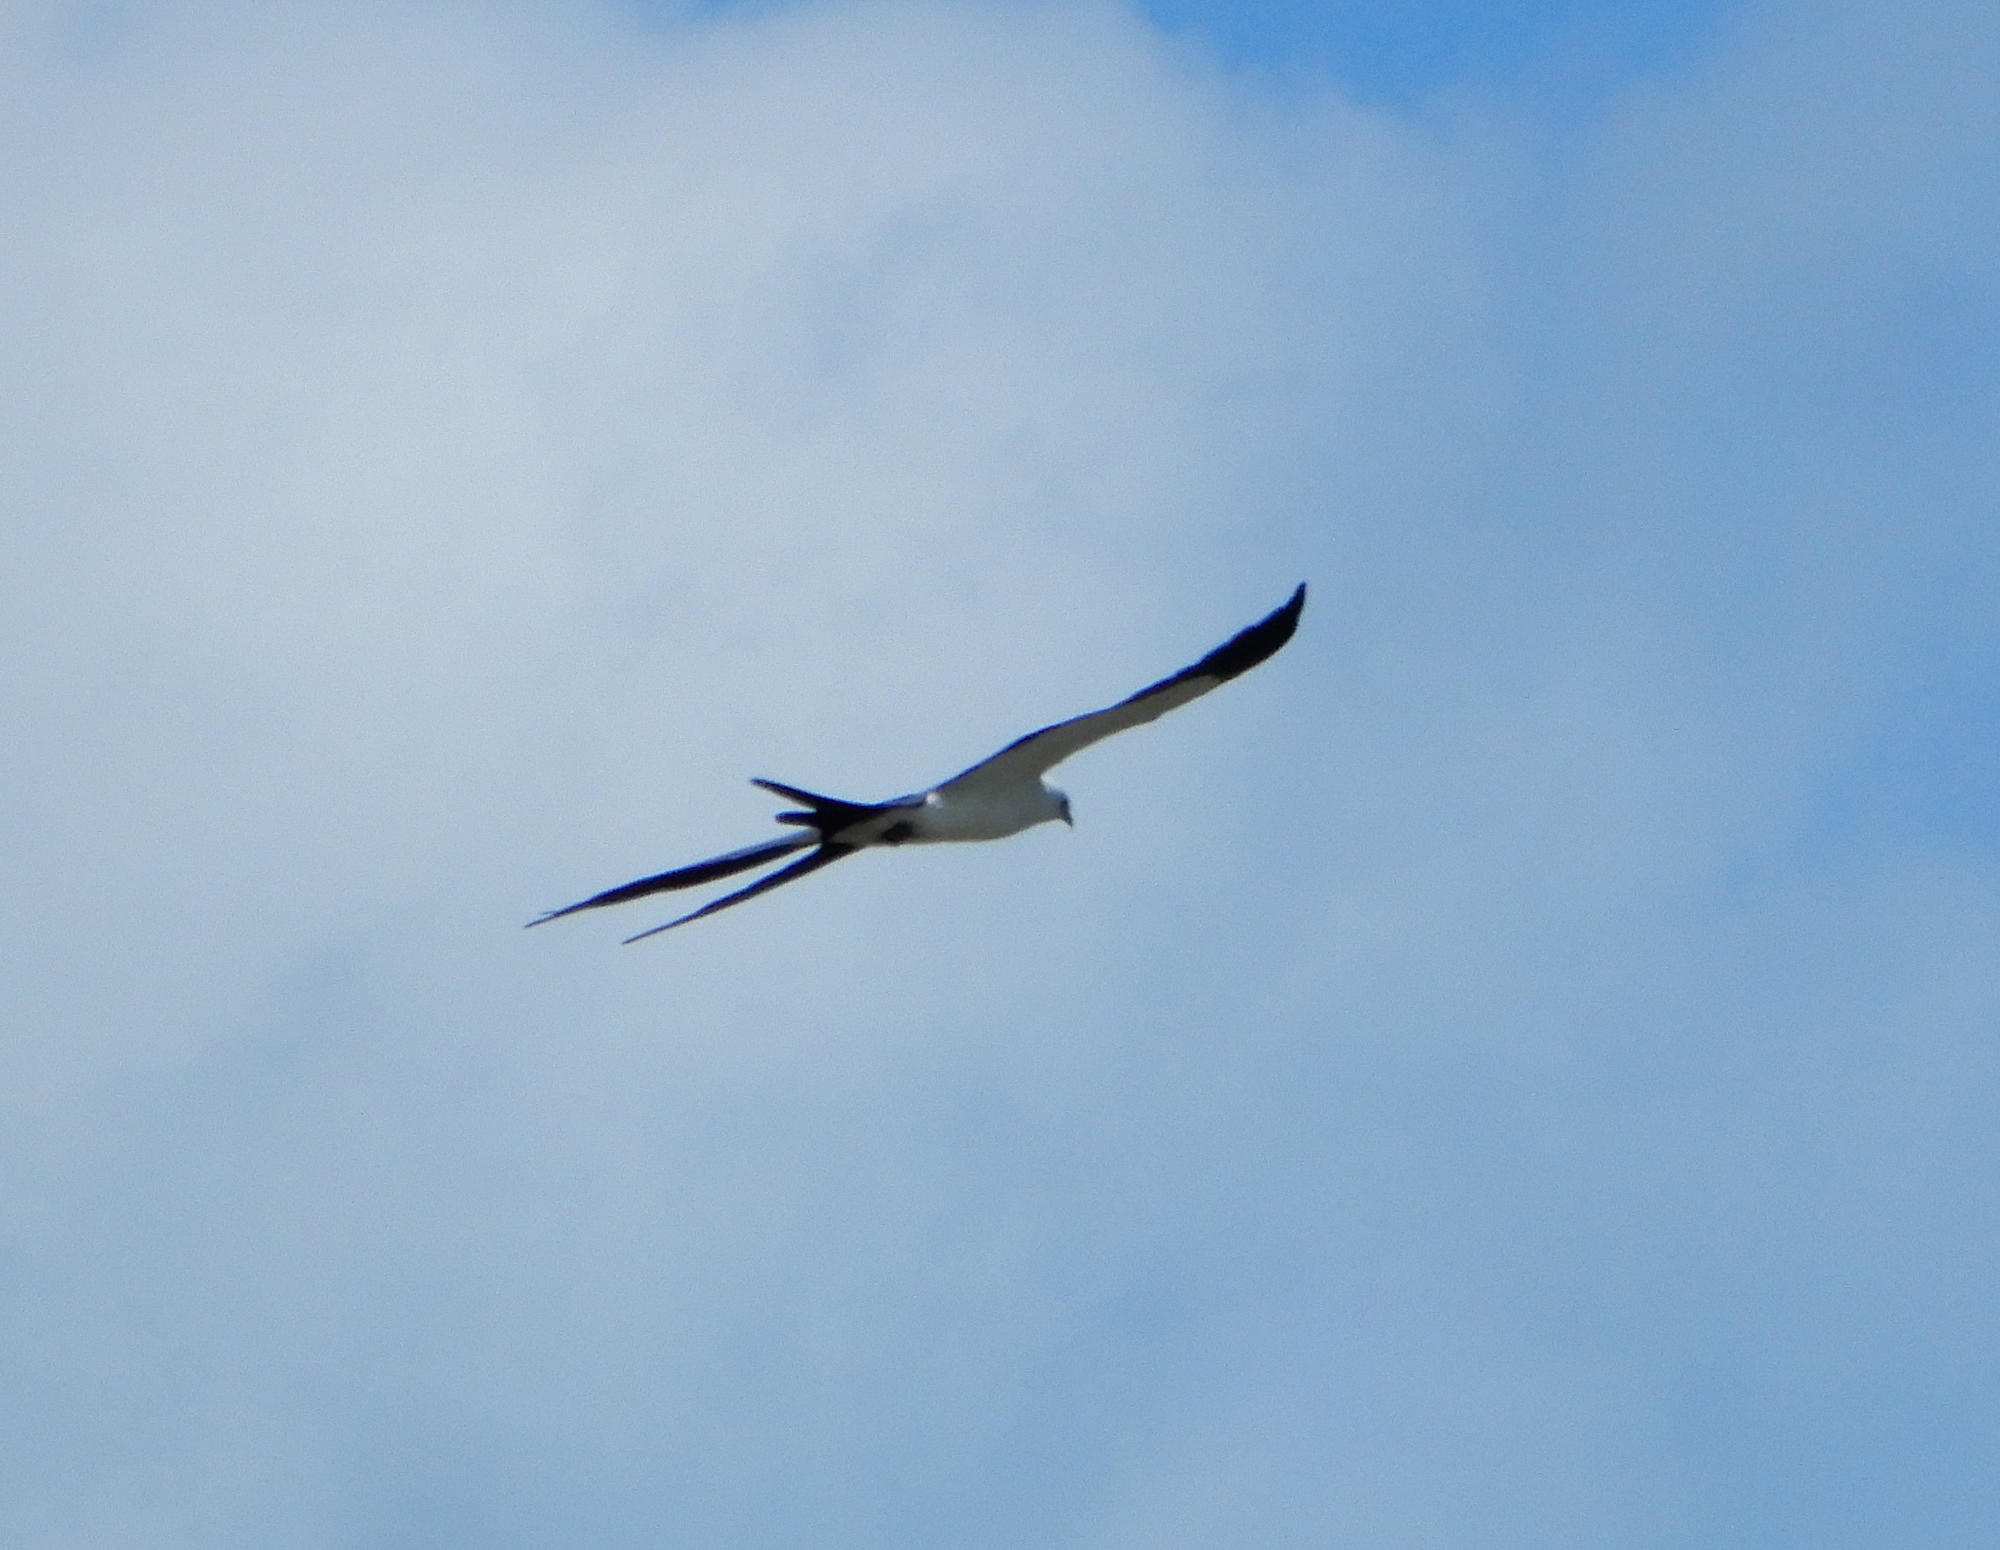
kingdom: Animalia
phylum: Chordata
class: Aves
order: Accipitriformes
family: Accipitridae
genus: Elanoides
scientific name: Elanoides forficatus
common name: Swallow-tailed kite
